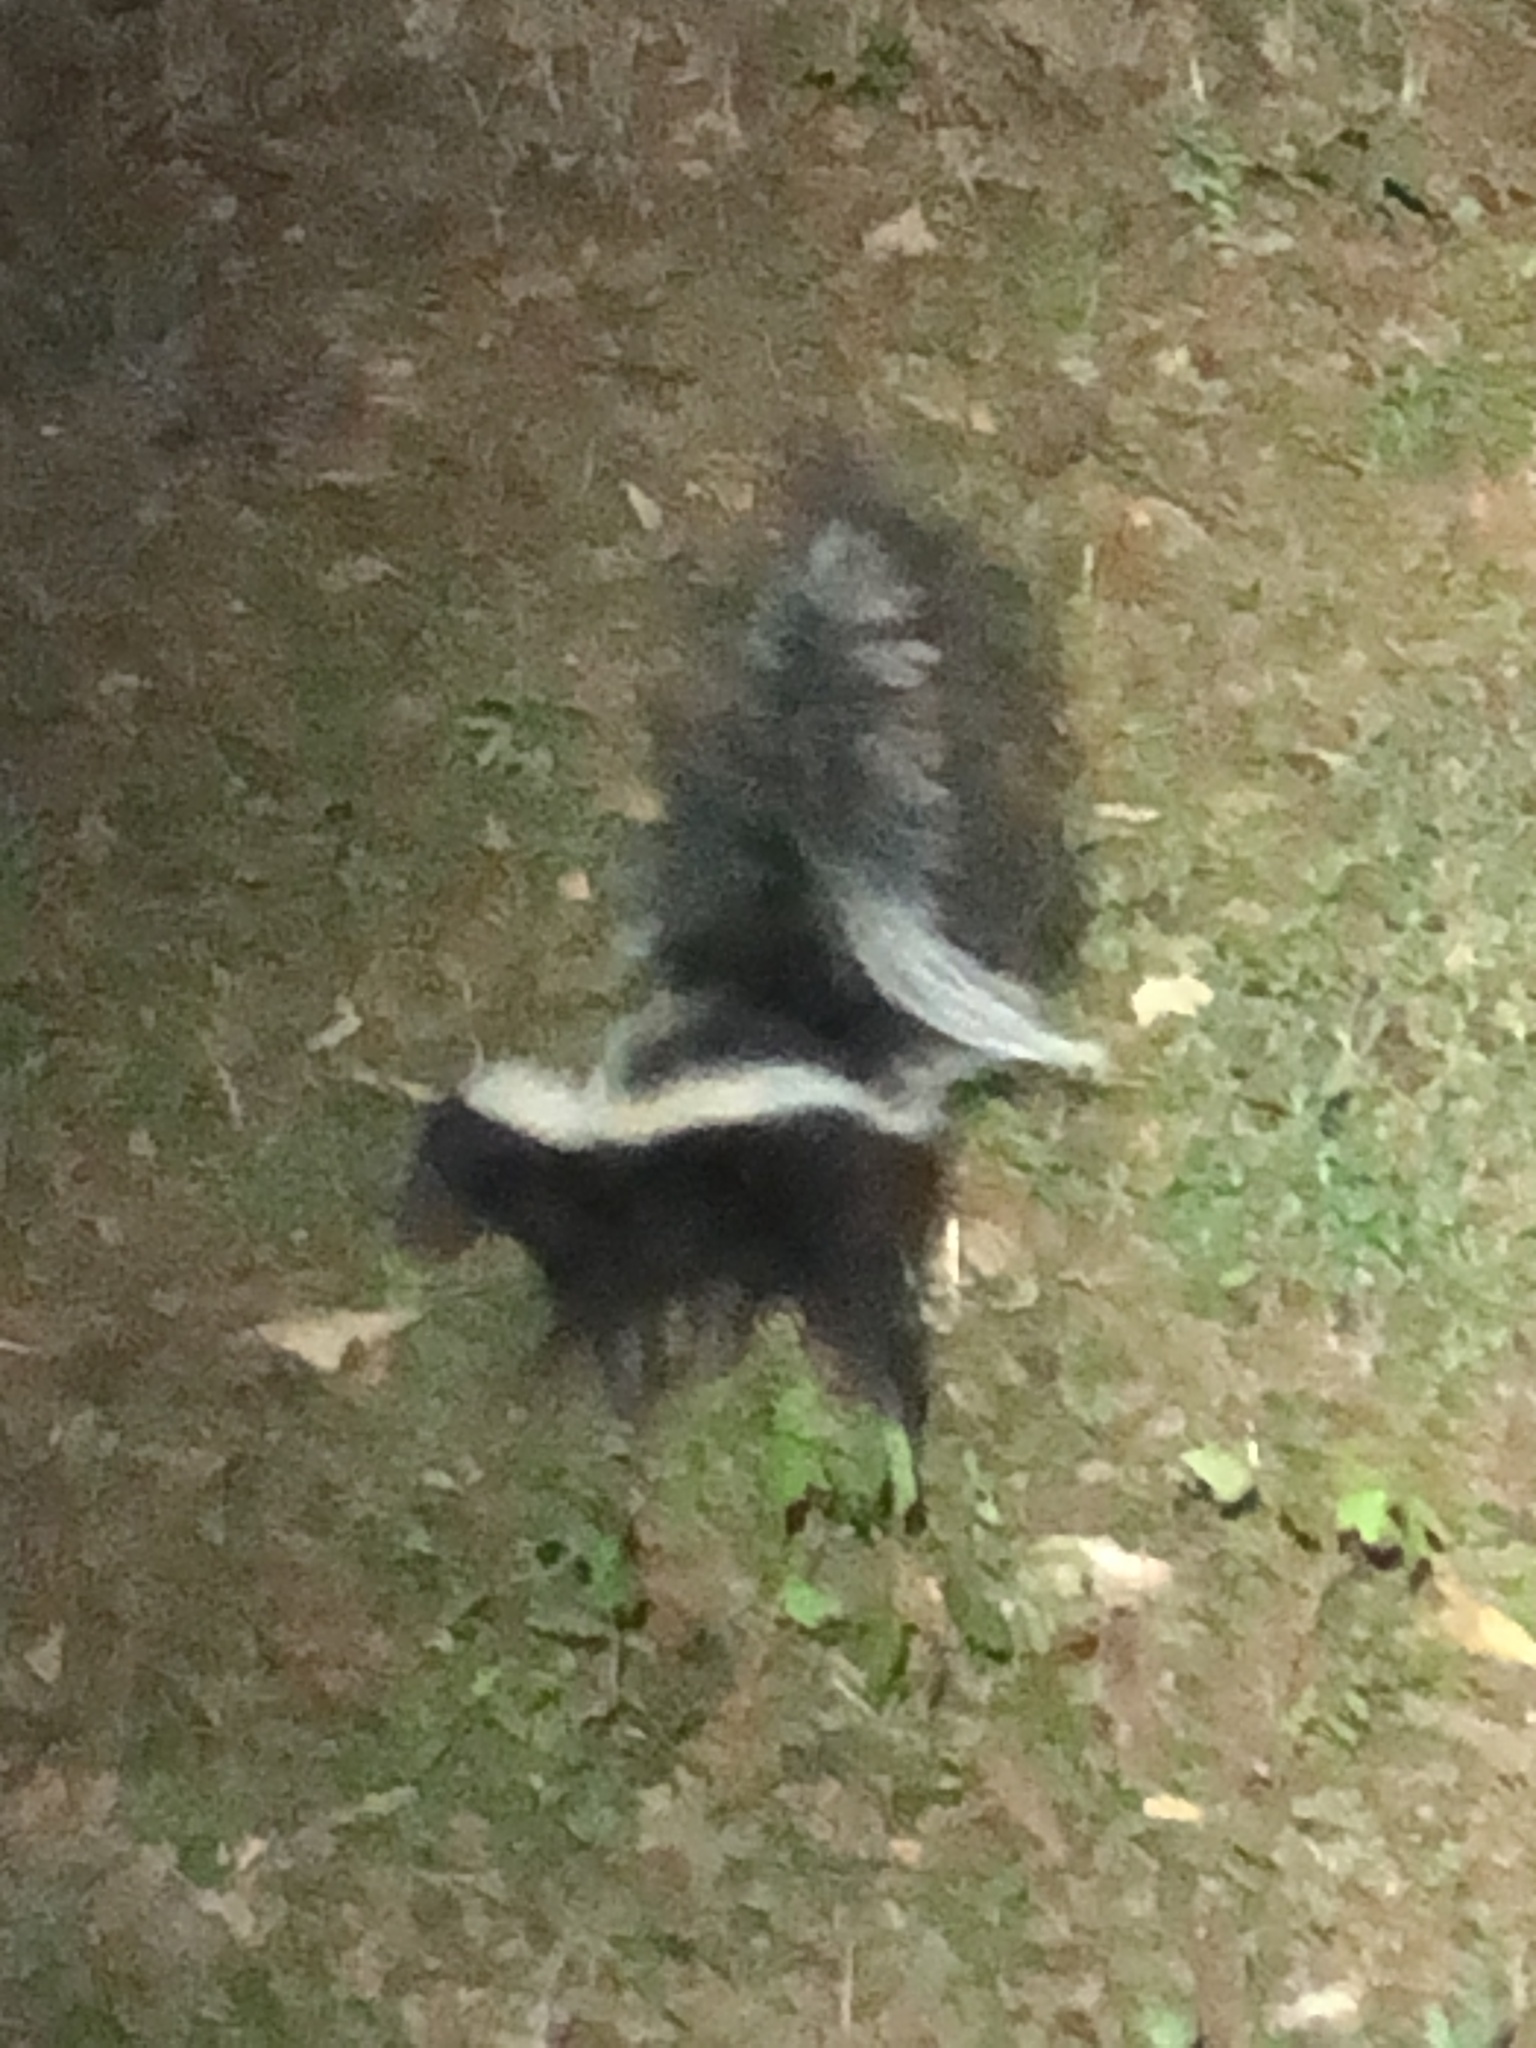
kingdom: Animalia
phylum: Chordata
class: Mammalia
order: Carnivora
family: Mephitidae
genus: Mephitis
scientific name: Mephitis mephitis
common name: Striped skunk
